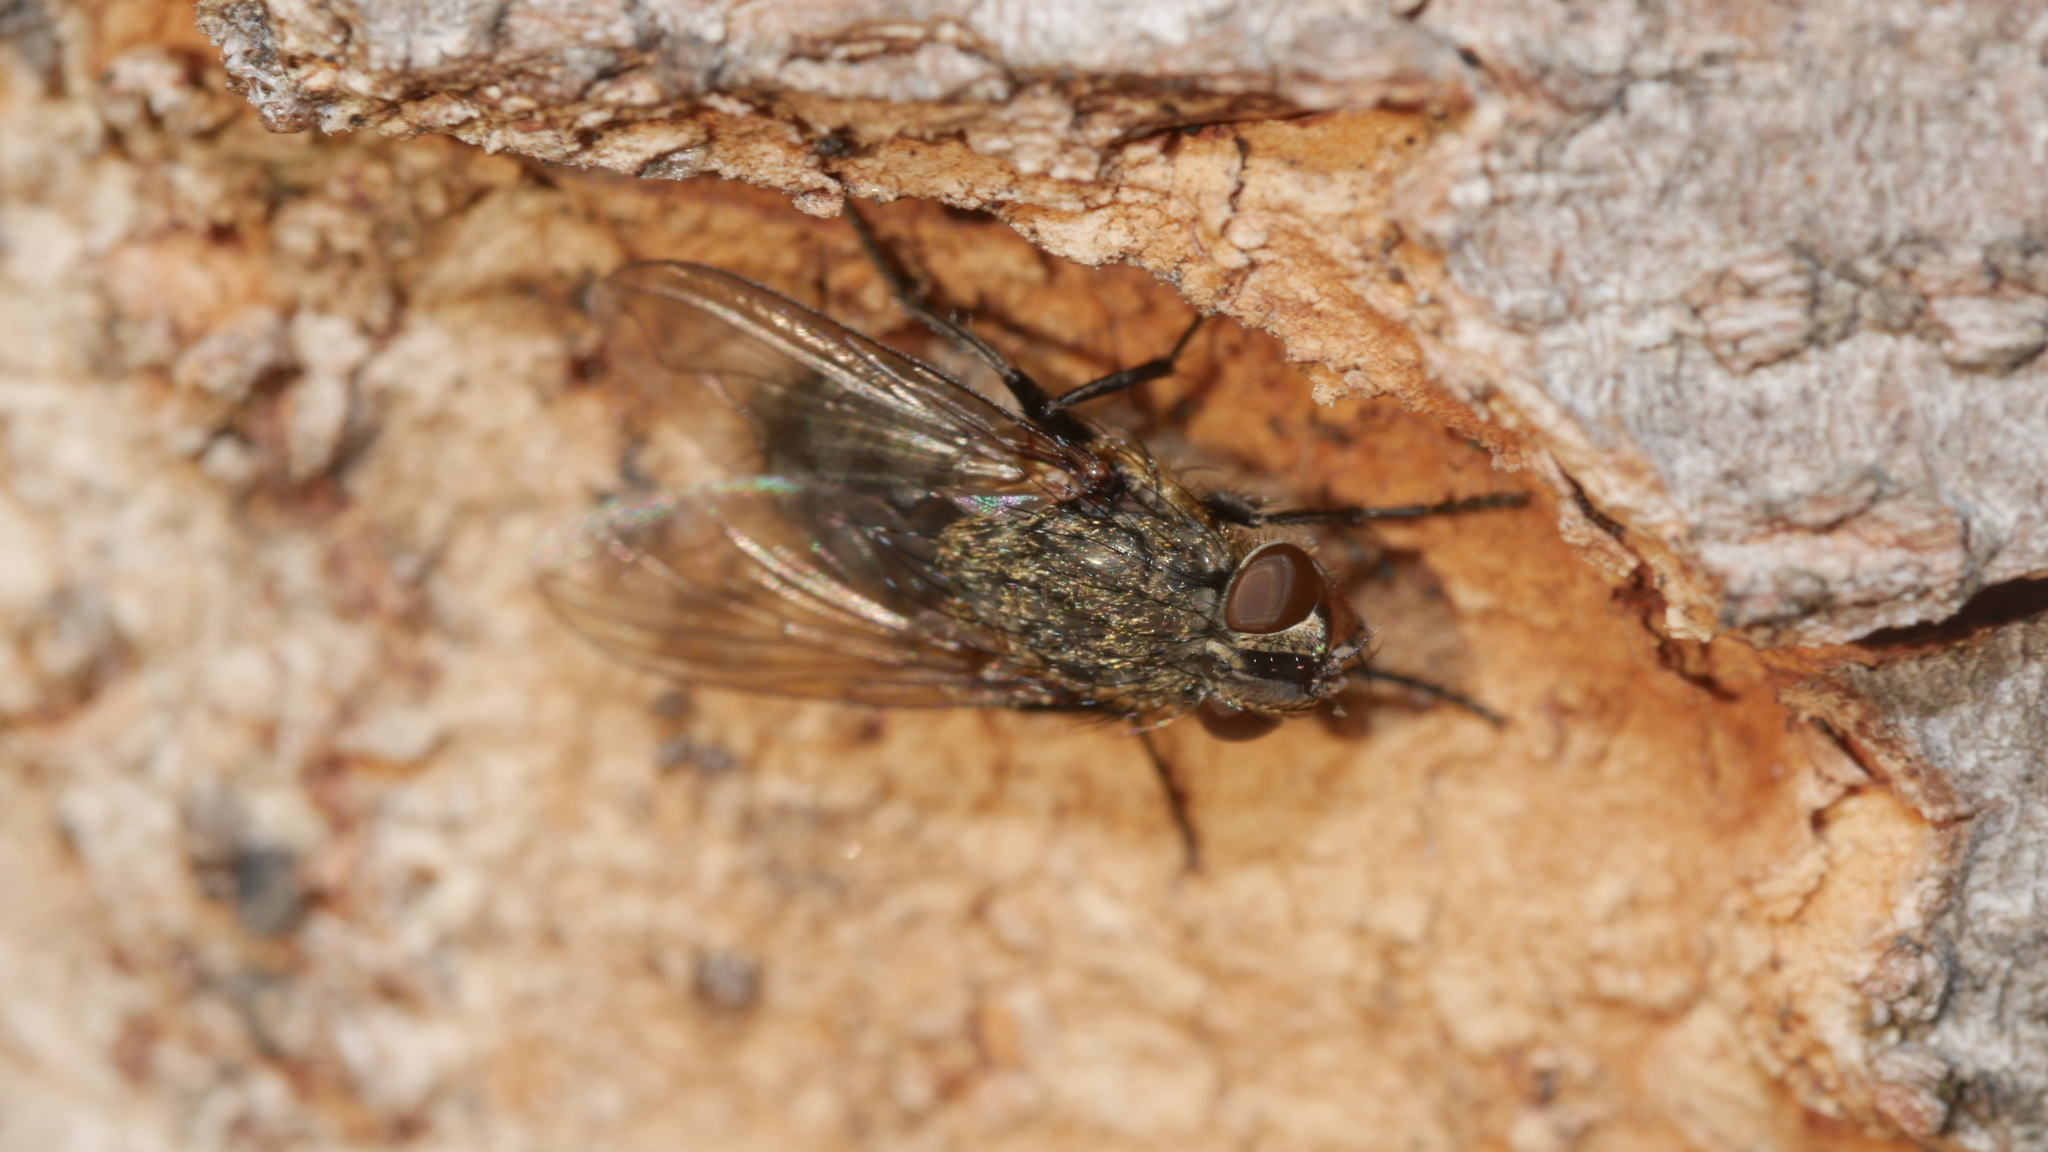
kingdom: Animalia
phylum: Arthropoda
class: Insecta
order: Diptera
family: Polleniidae
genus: Pollenia
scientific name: Pollenia
